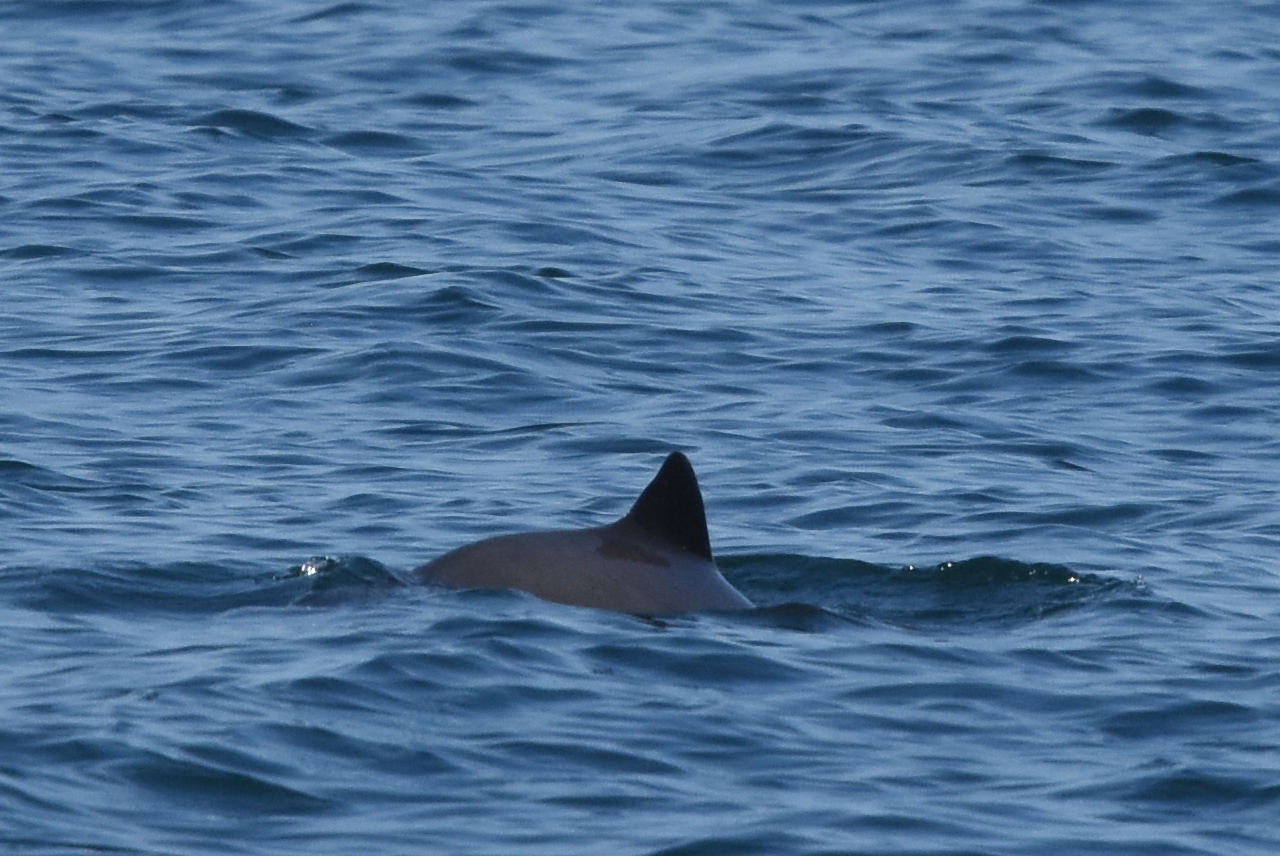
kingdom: Animalia
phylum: Chordata
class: Mammalia
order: Cetacea
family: Phocoenidae
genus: Phocoena
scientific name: Phocoena phocoena
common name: Harbor porpoise
